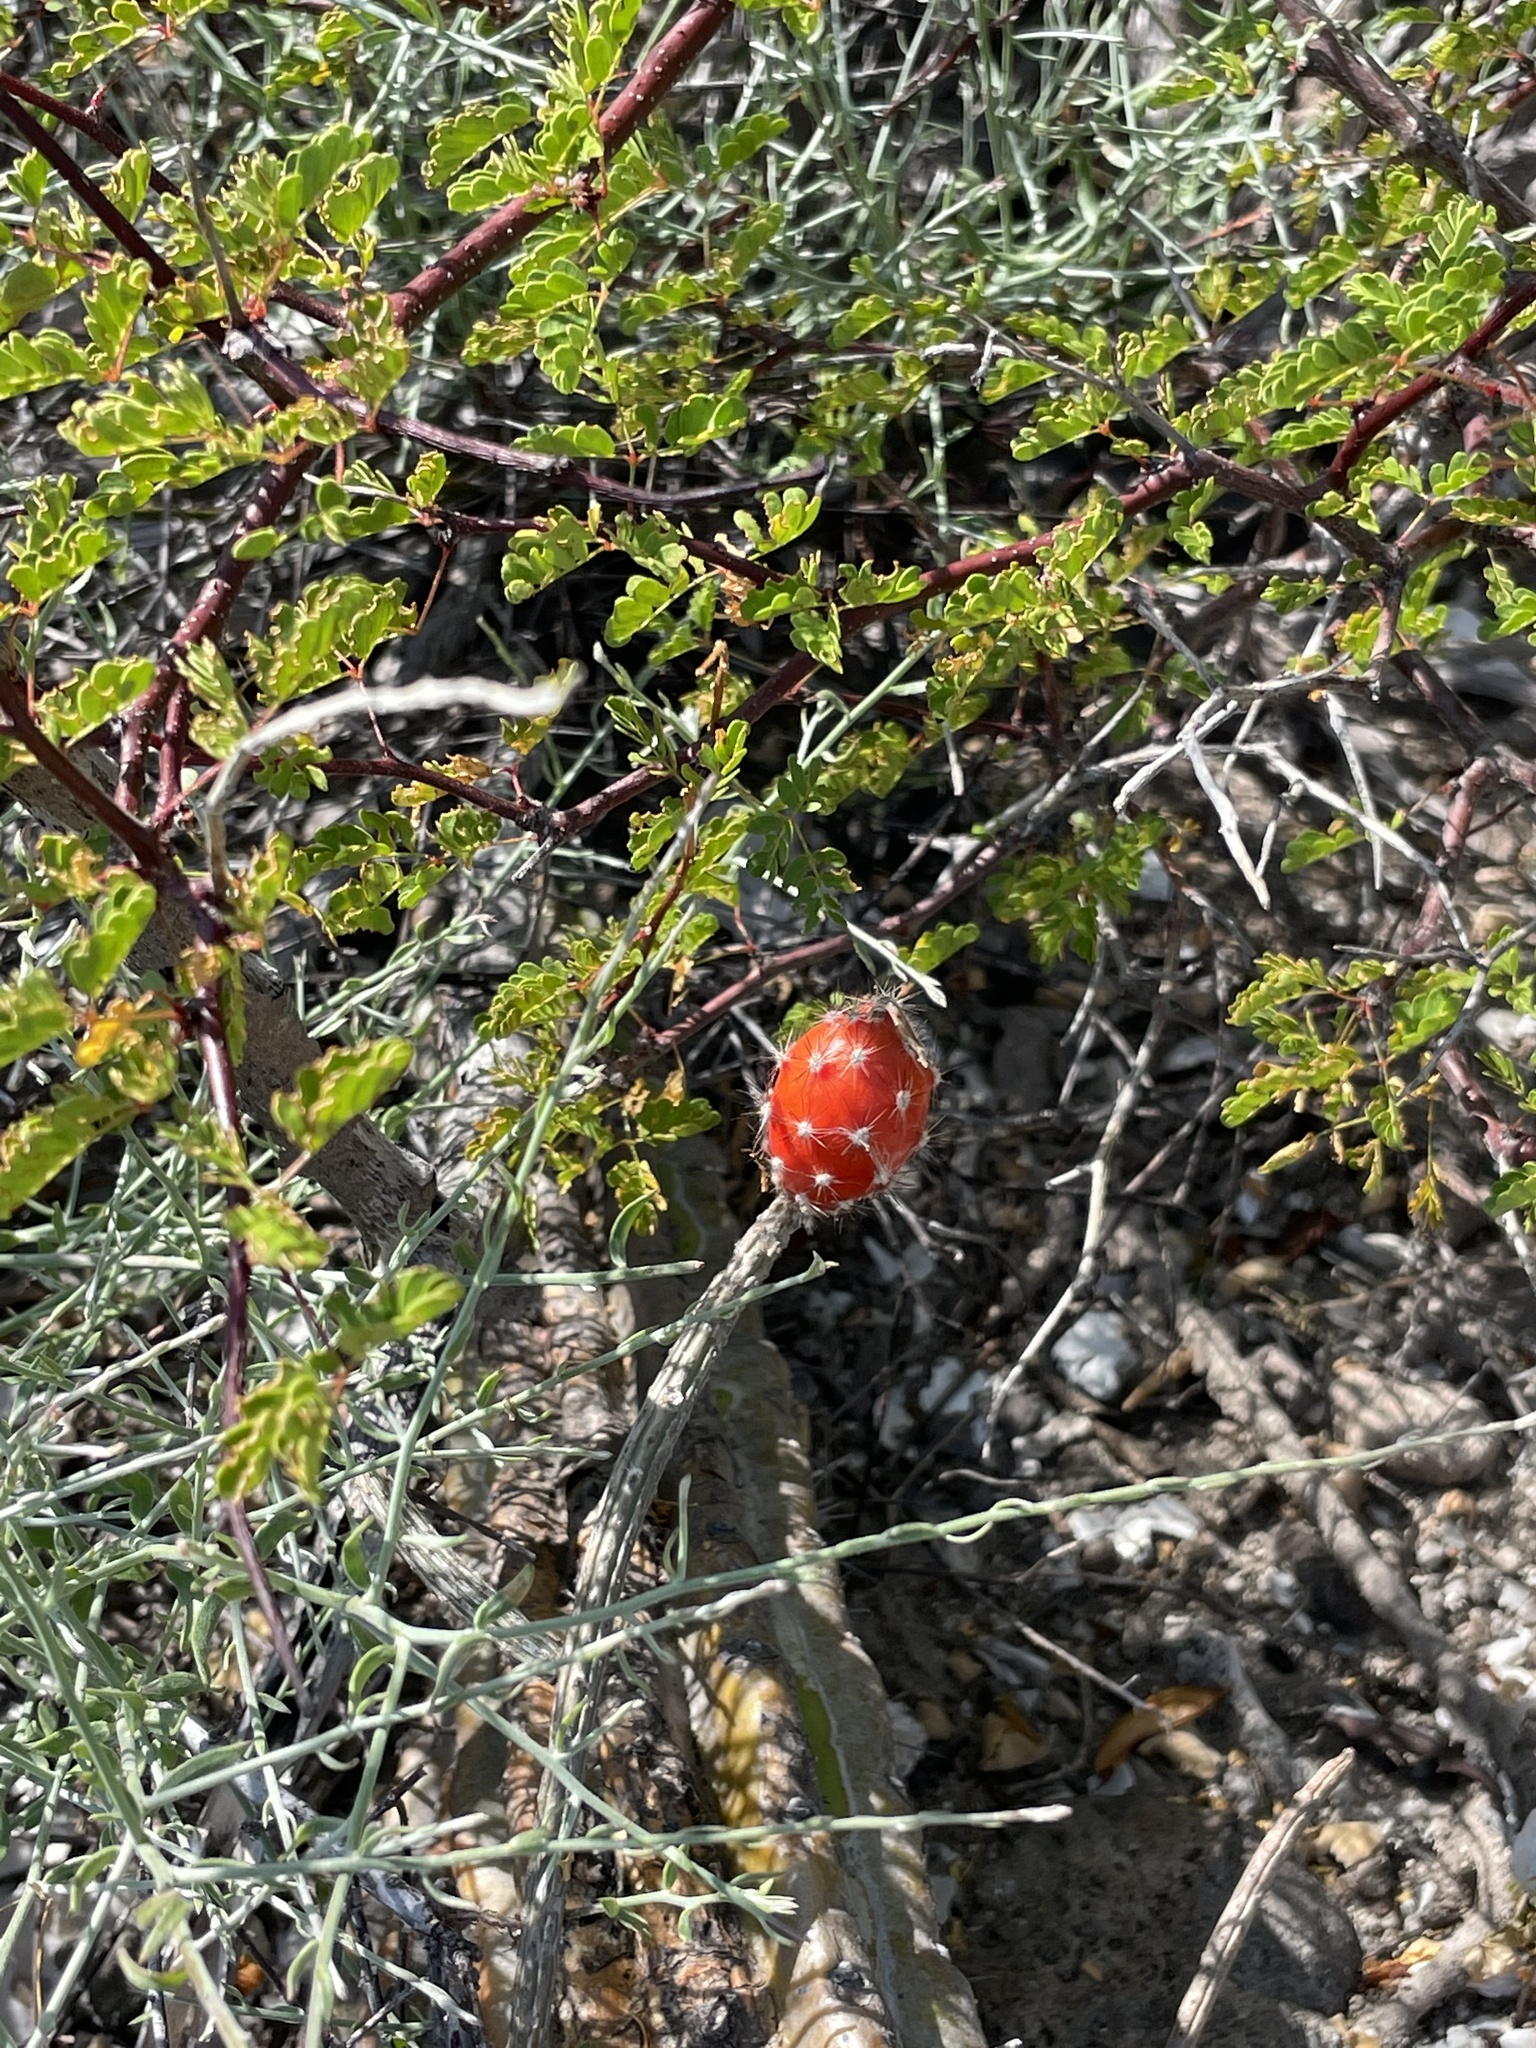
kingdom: Plantae
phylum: Tracheophyta
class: Magnoliopsida
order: Caryophyllales
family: Cactaceae
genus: Peniocereus
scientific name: Peniocereus striatus
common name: Gearstem cactus
